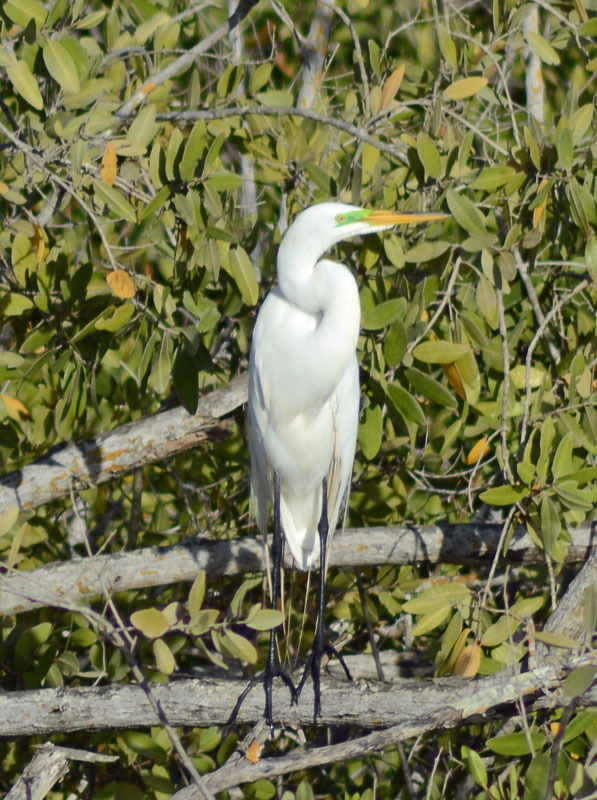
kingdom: Animalia
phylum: Chordata
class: Aves
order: Pelecaniformes
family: Ardeidae
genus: Ardea
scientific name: Ardea alba
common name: Great egret
